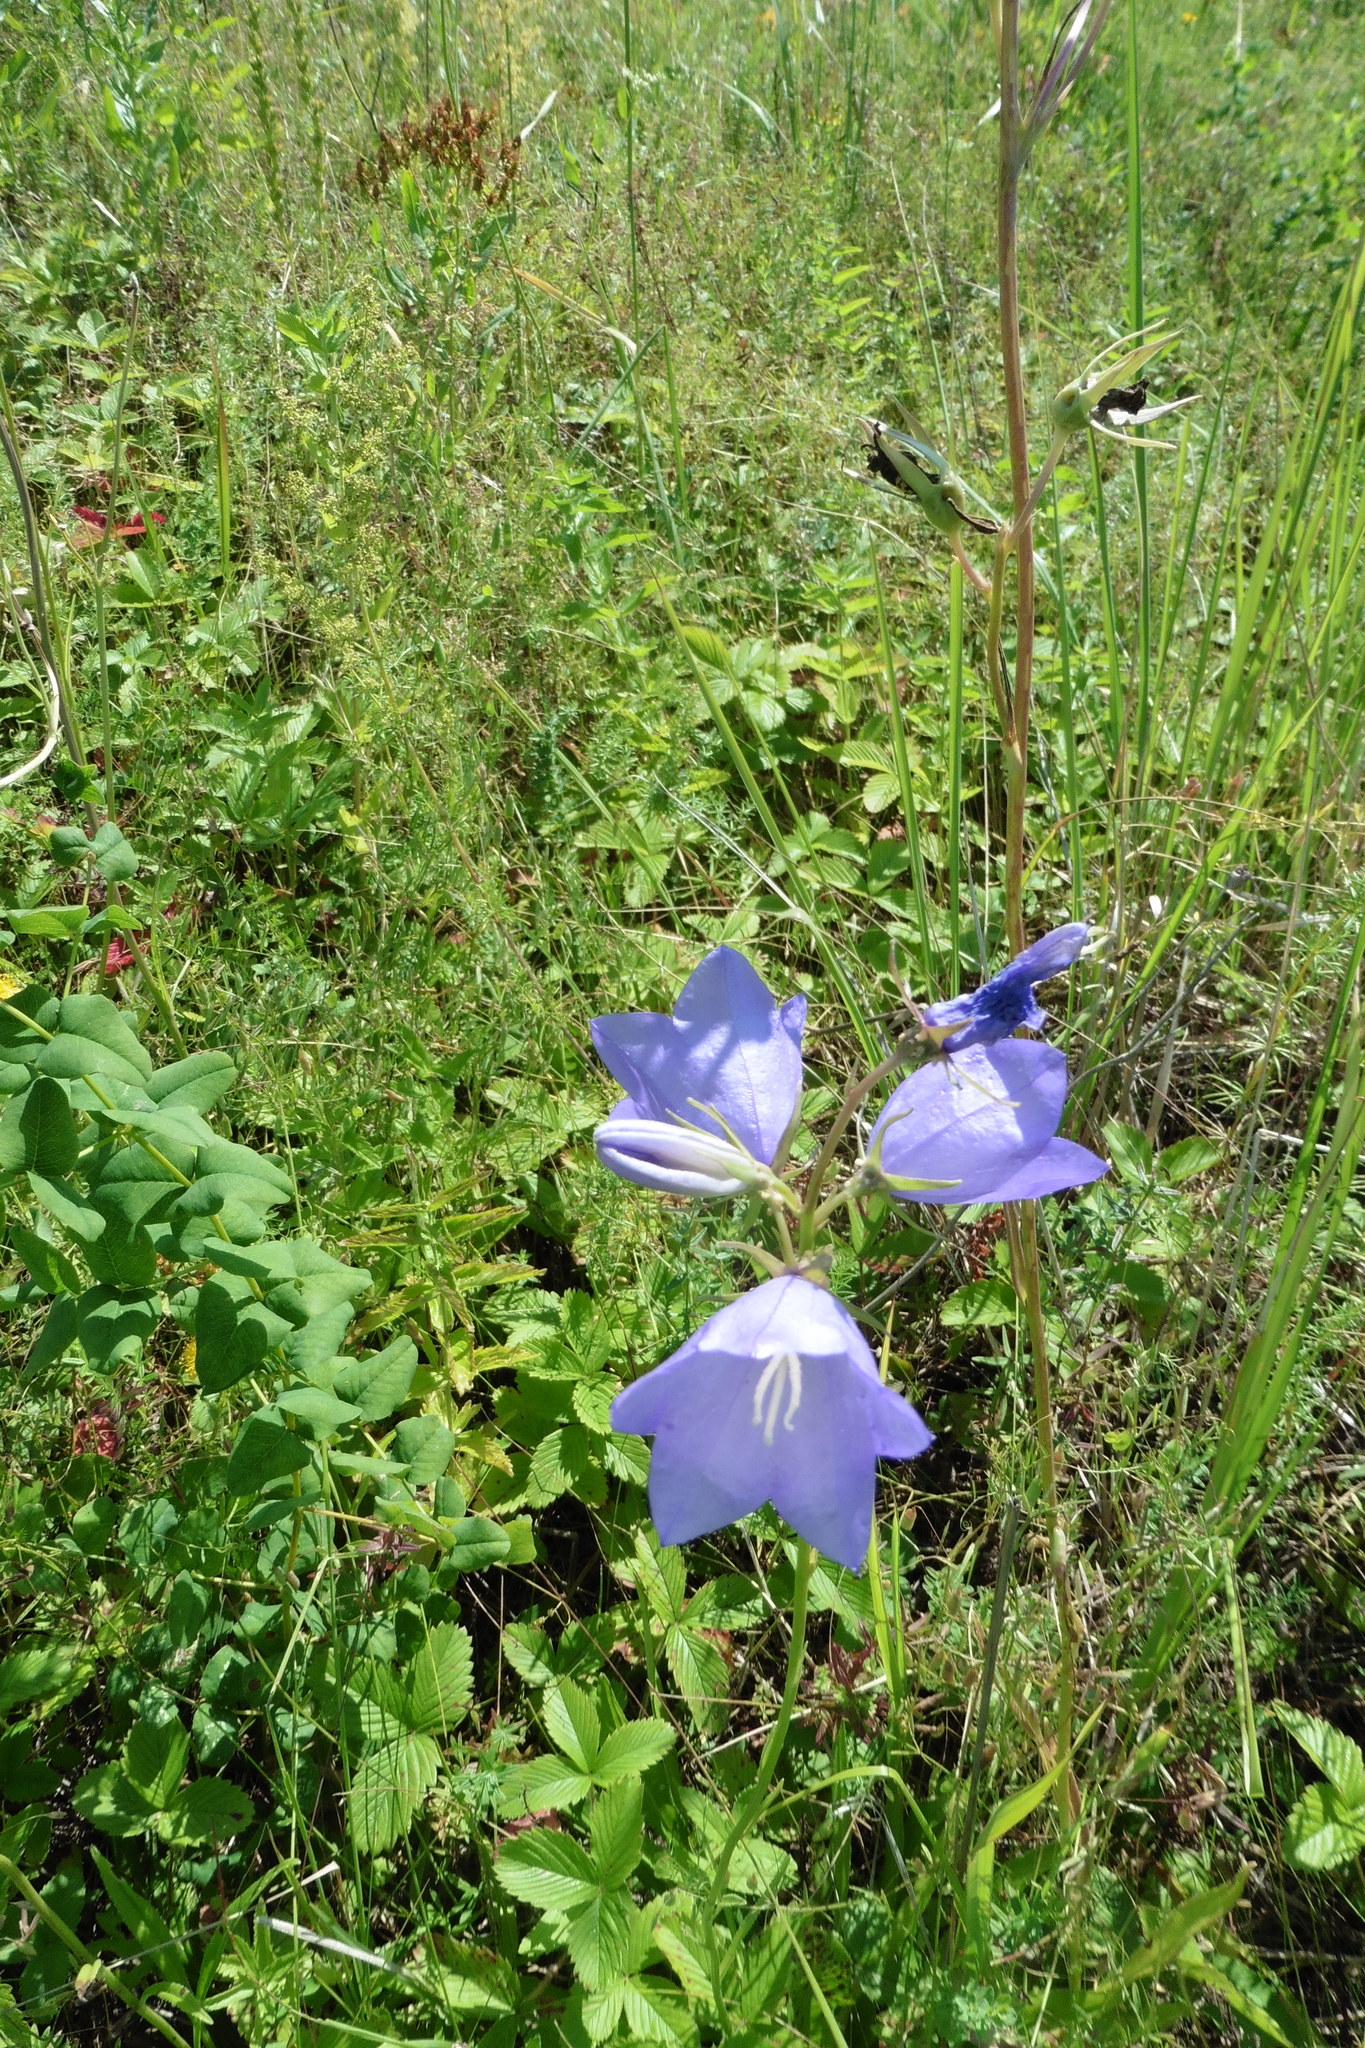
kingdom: Plantae
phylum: Tracheophyta
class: Magnoliopsida
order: Asterales
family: Campanulaceae
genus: Campanula
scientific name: Campanula persicifolia
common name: Peach-leaved bellflower
